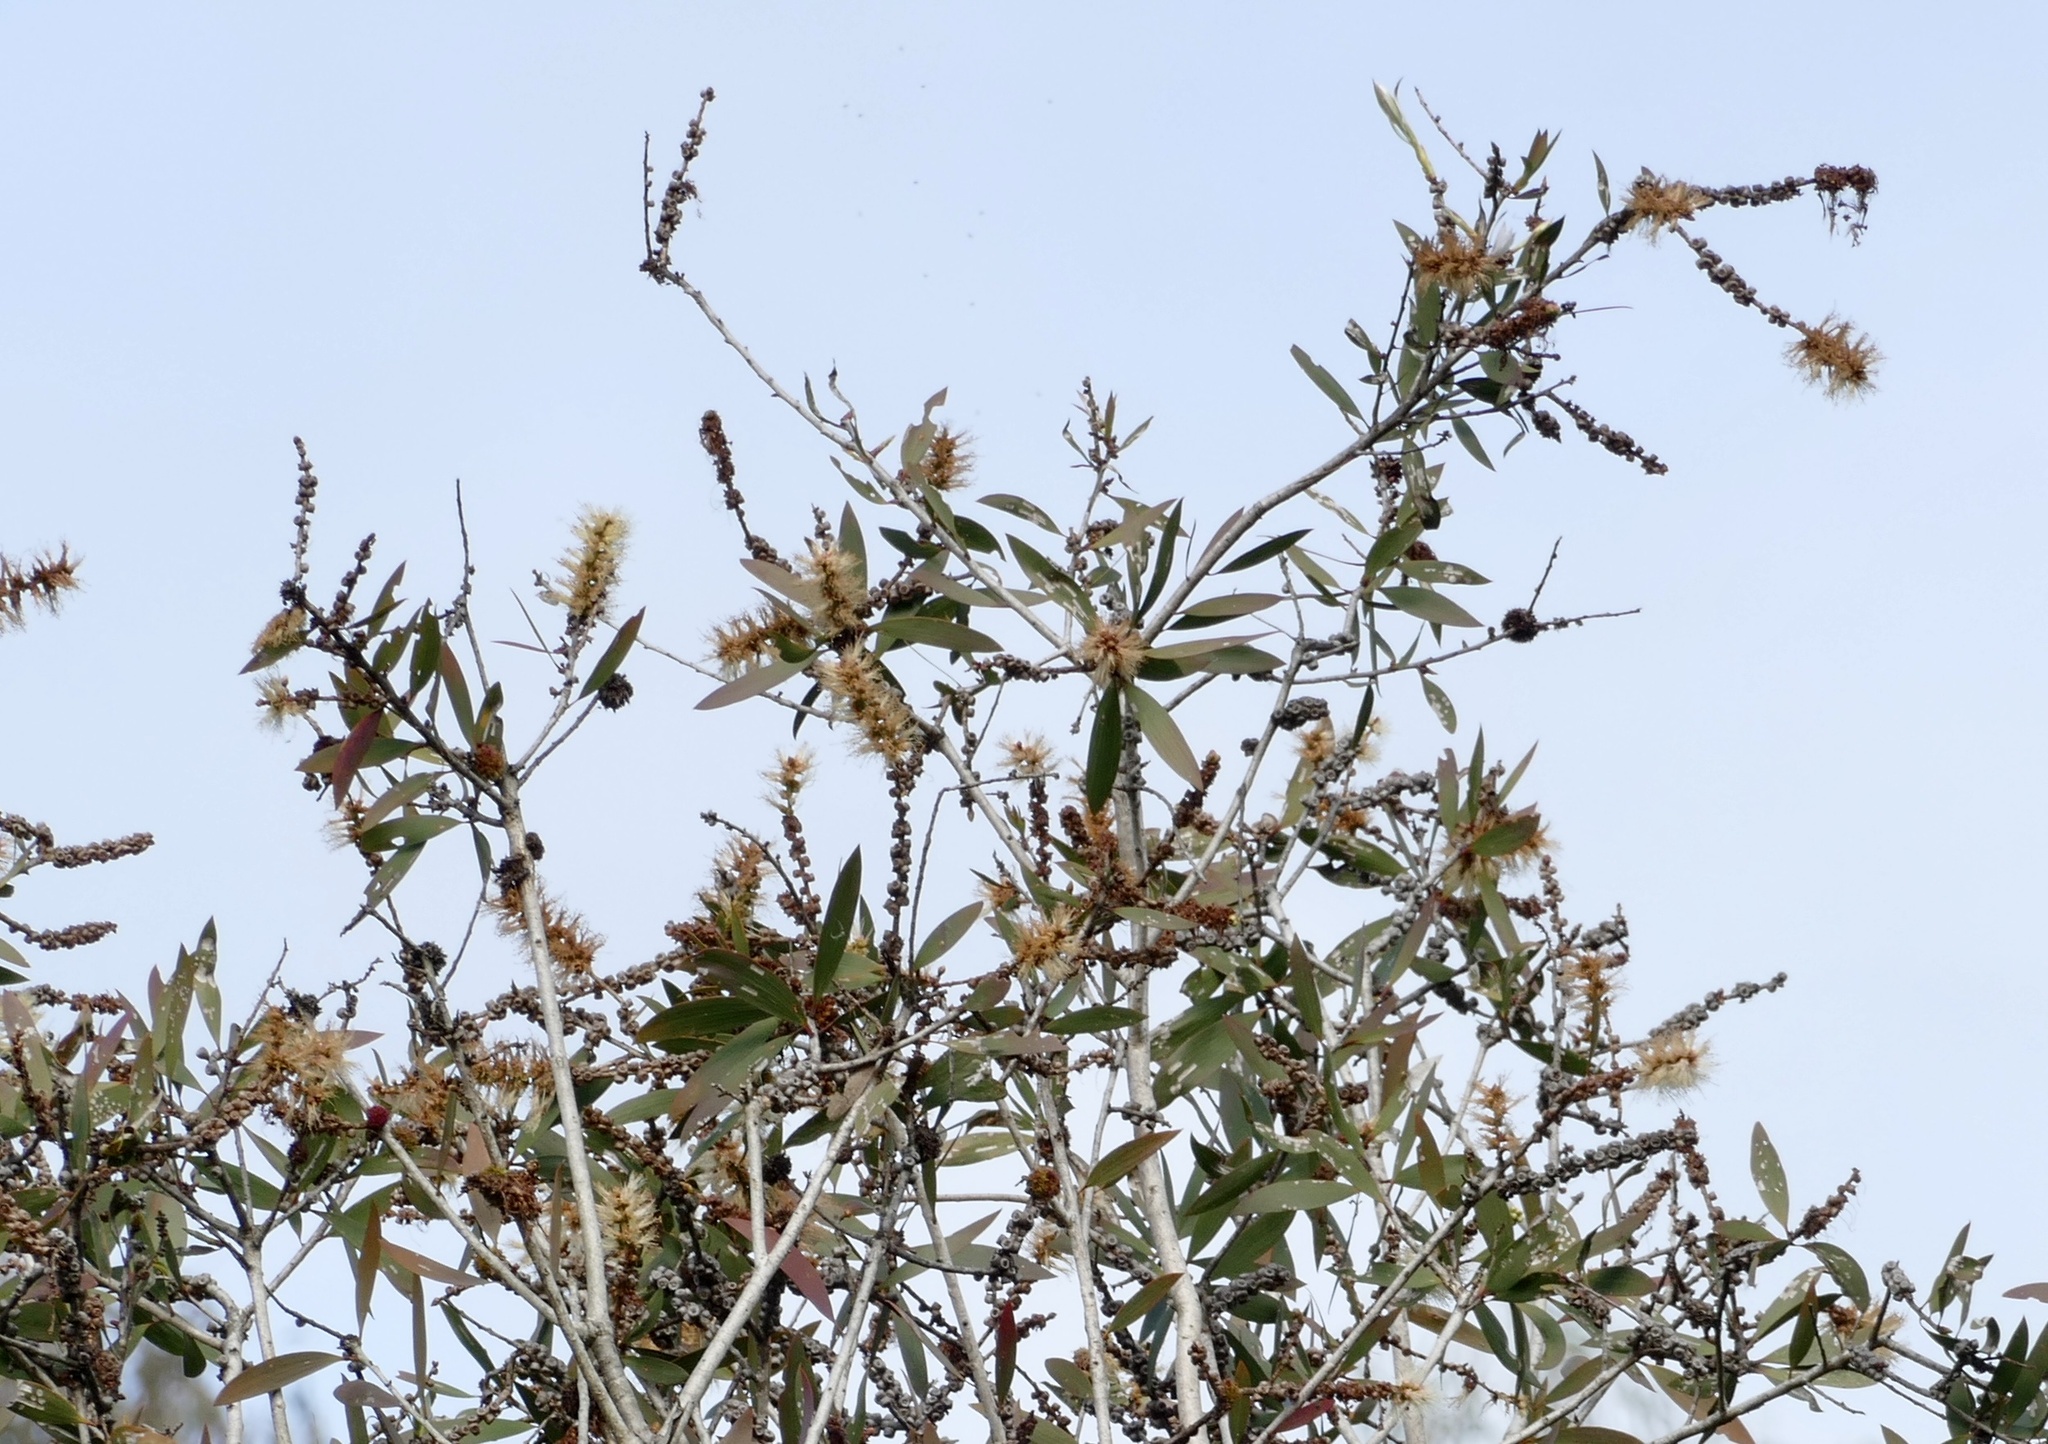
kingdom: Plantae
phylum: Tracheophyta
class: Magnoliopsida
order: Myrtales
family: Myrtaceae
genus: Melaleuca
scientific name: Melaleuca quinquenervia
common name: Punktree
